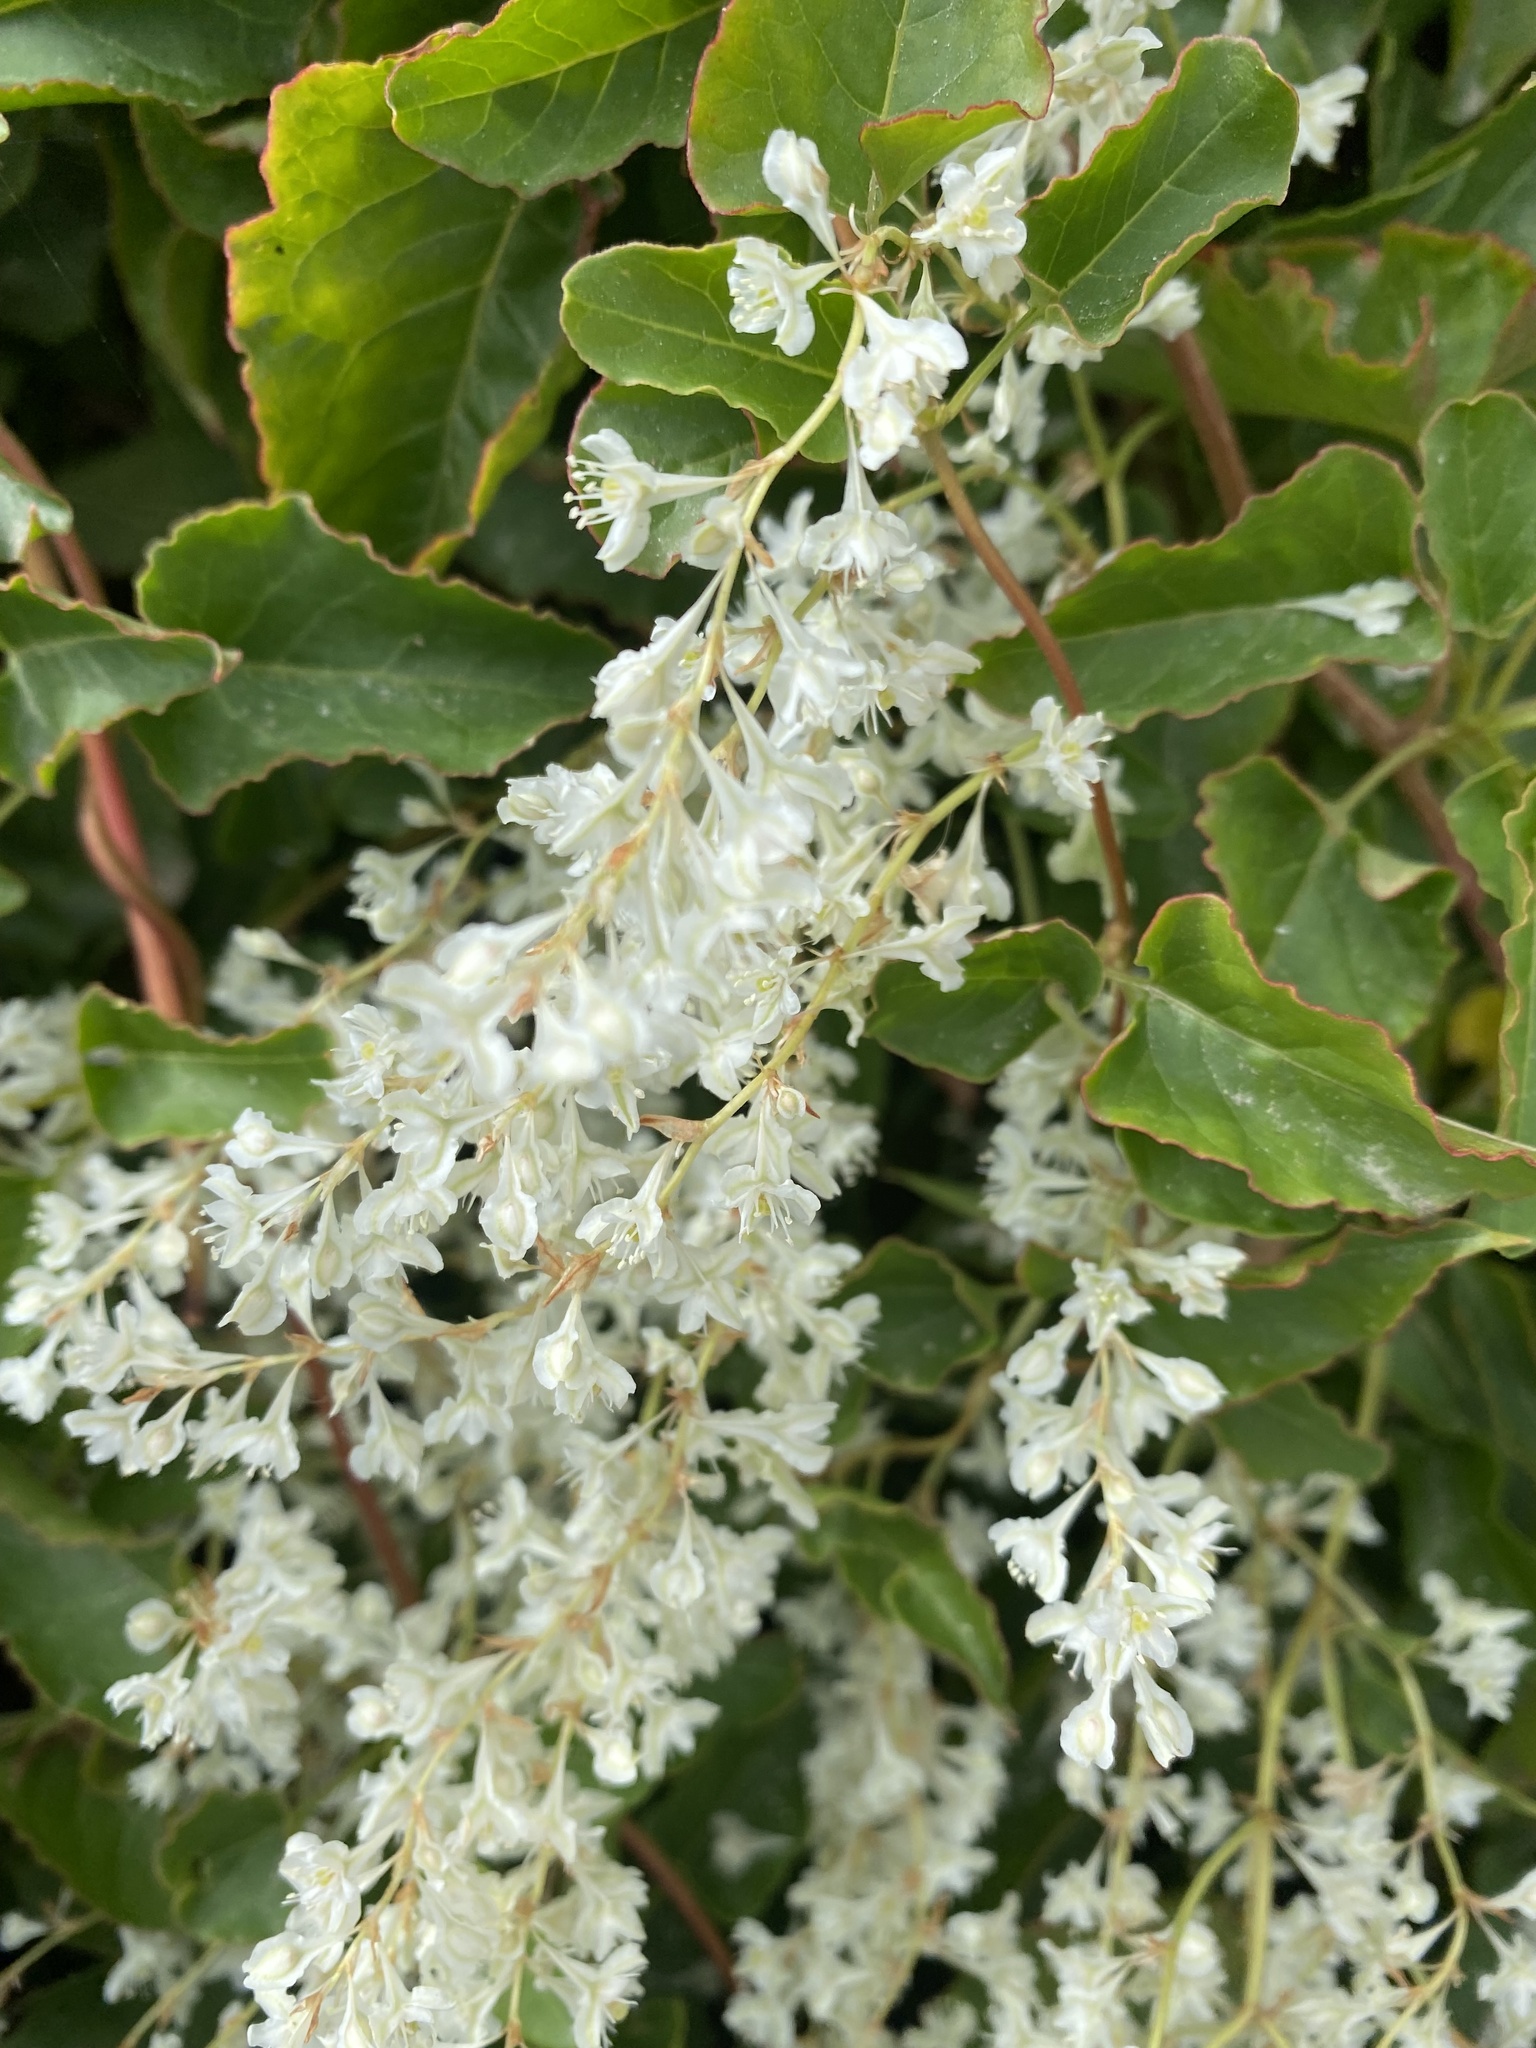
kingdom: Plantae
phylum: Tracheophyta
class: Magnoliopsida
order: Caryophyllales
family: Polygonaceae
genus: Fallopia
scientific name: Fallopia baldschuanica
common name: Russian-vine
